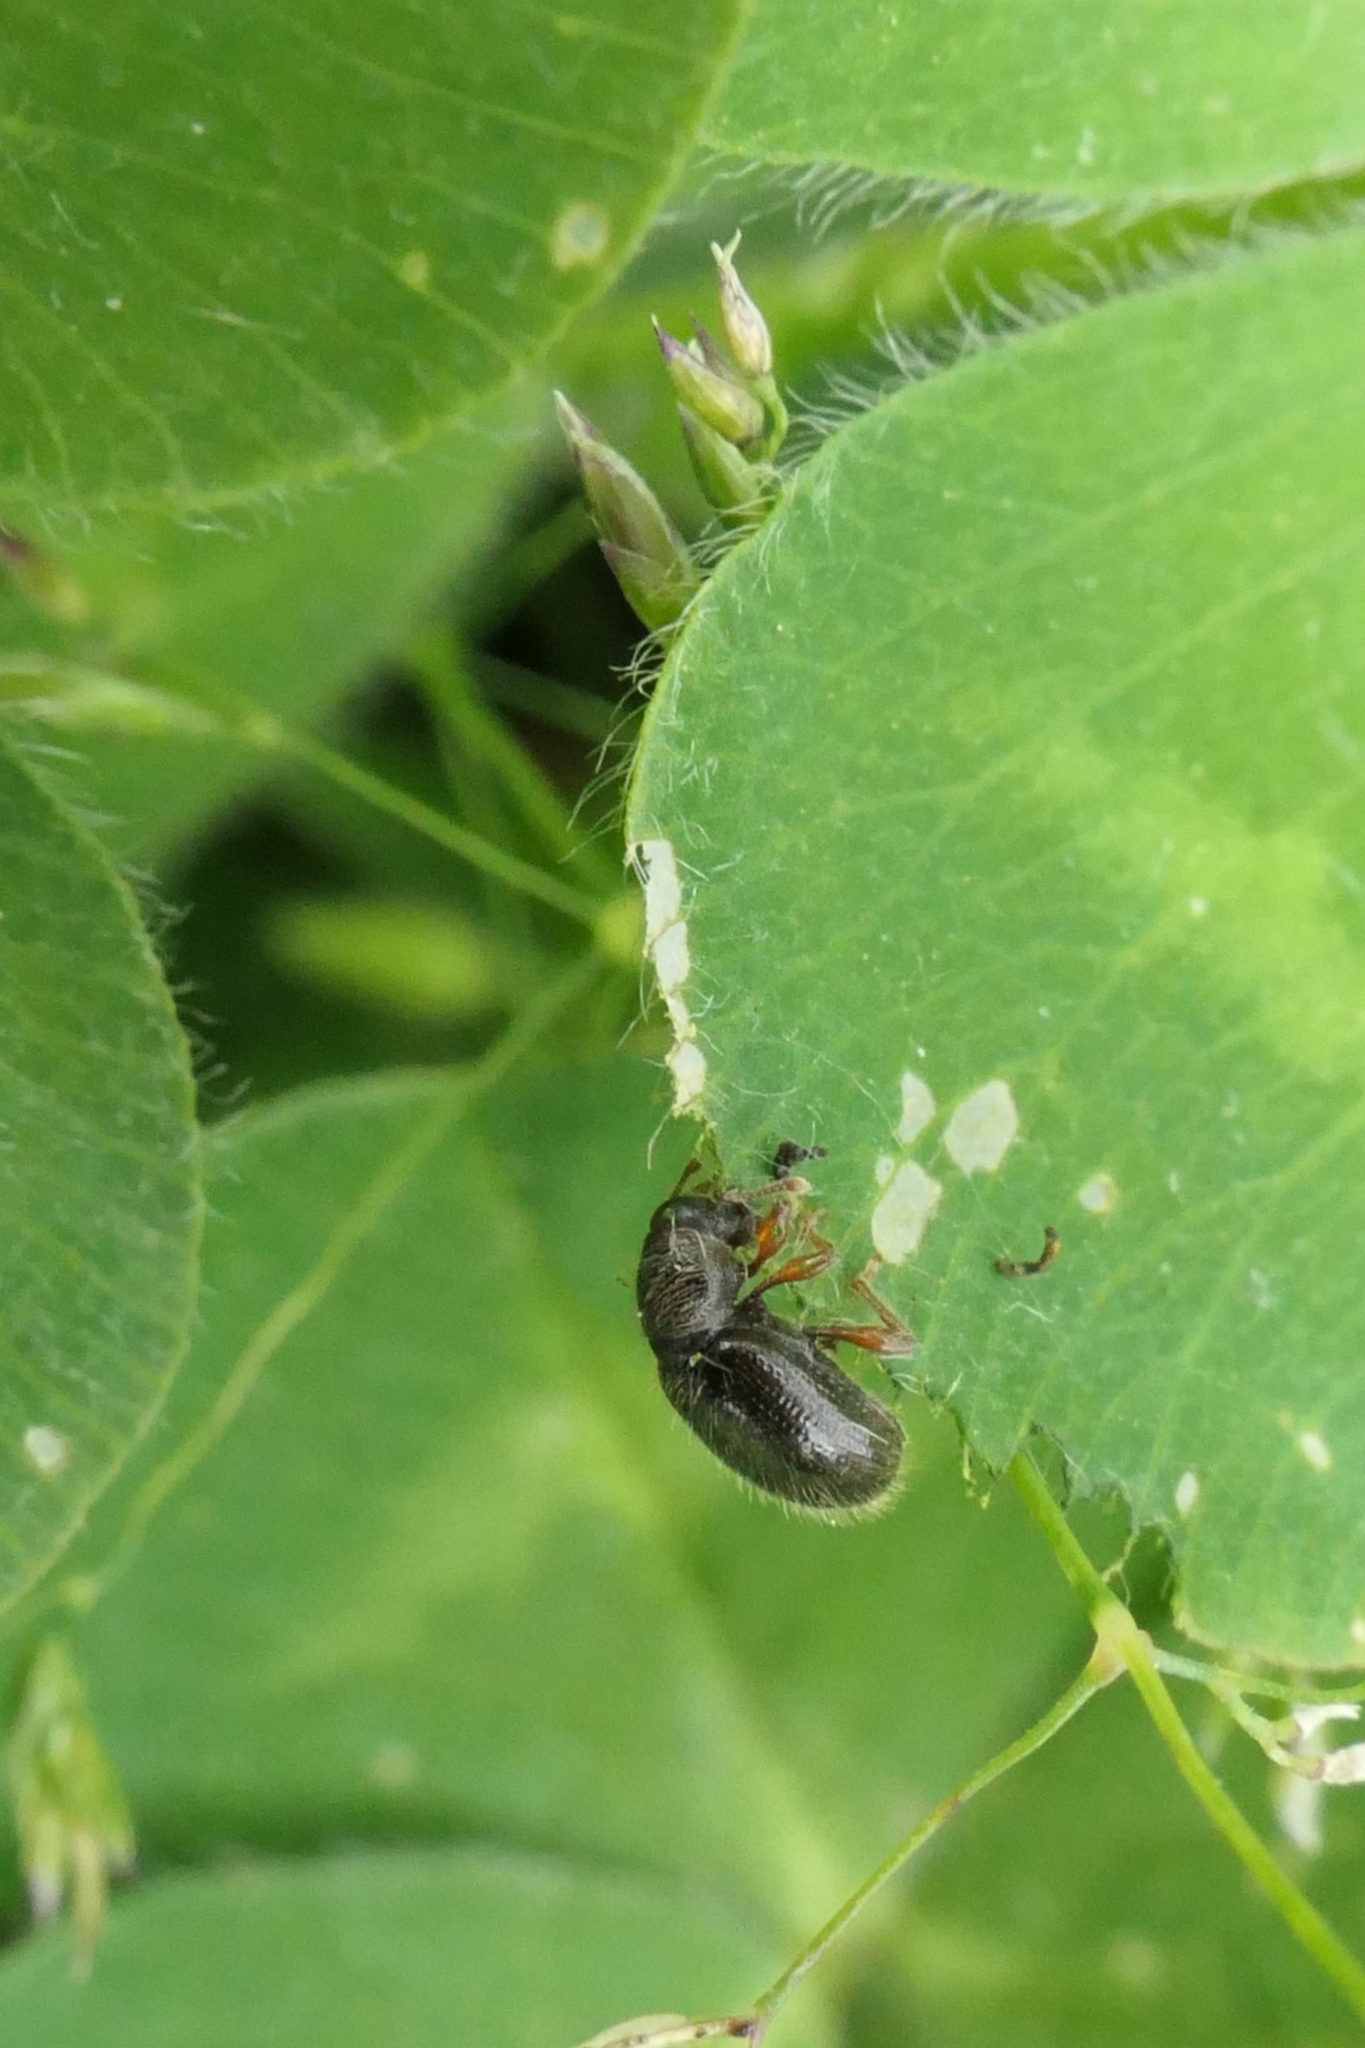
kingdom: Animalia
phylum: Arthropoda
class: Insecta
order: Coleoptera
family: Curculionidae
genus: Exomias
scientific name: Exomias pellucidus
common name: Hairy spider weevil
